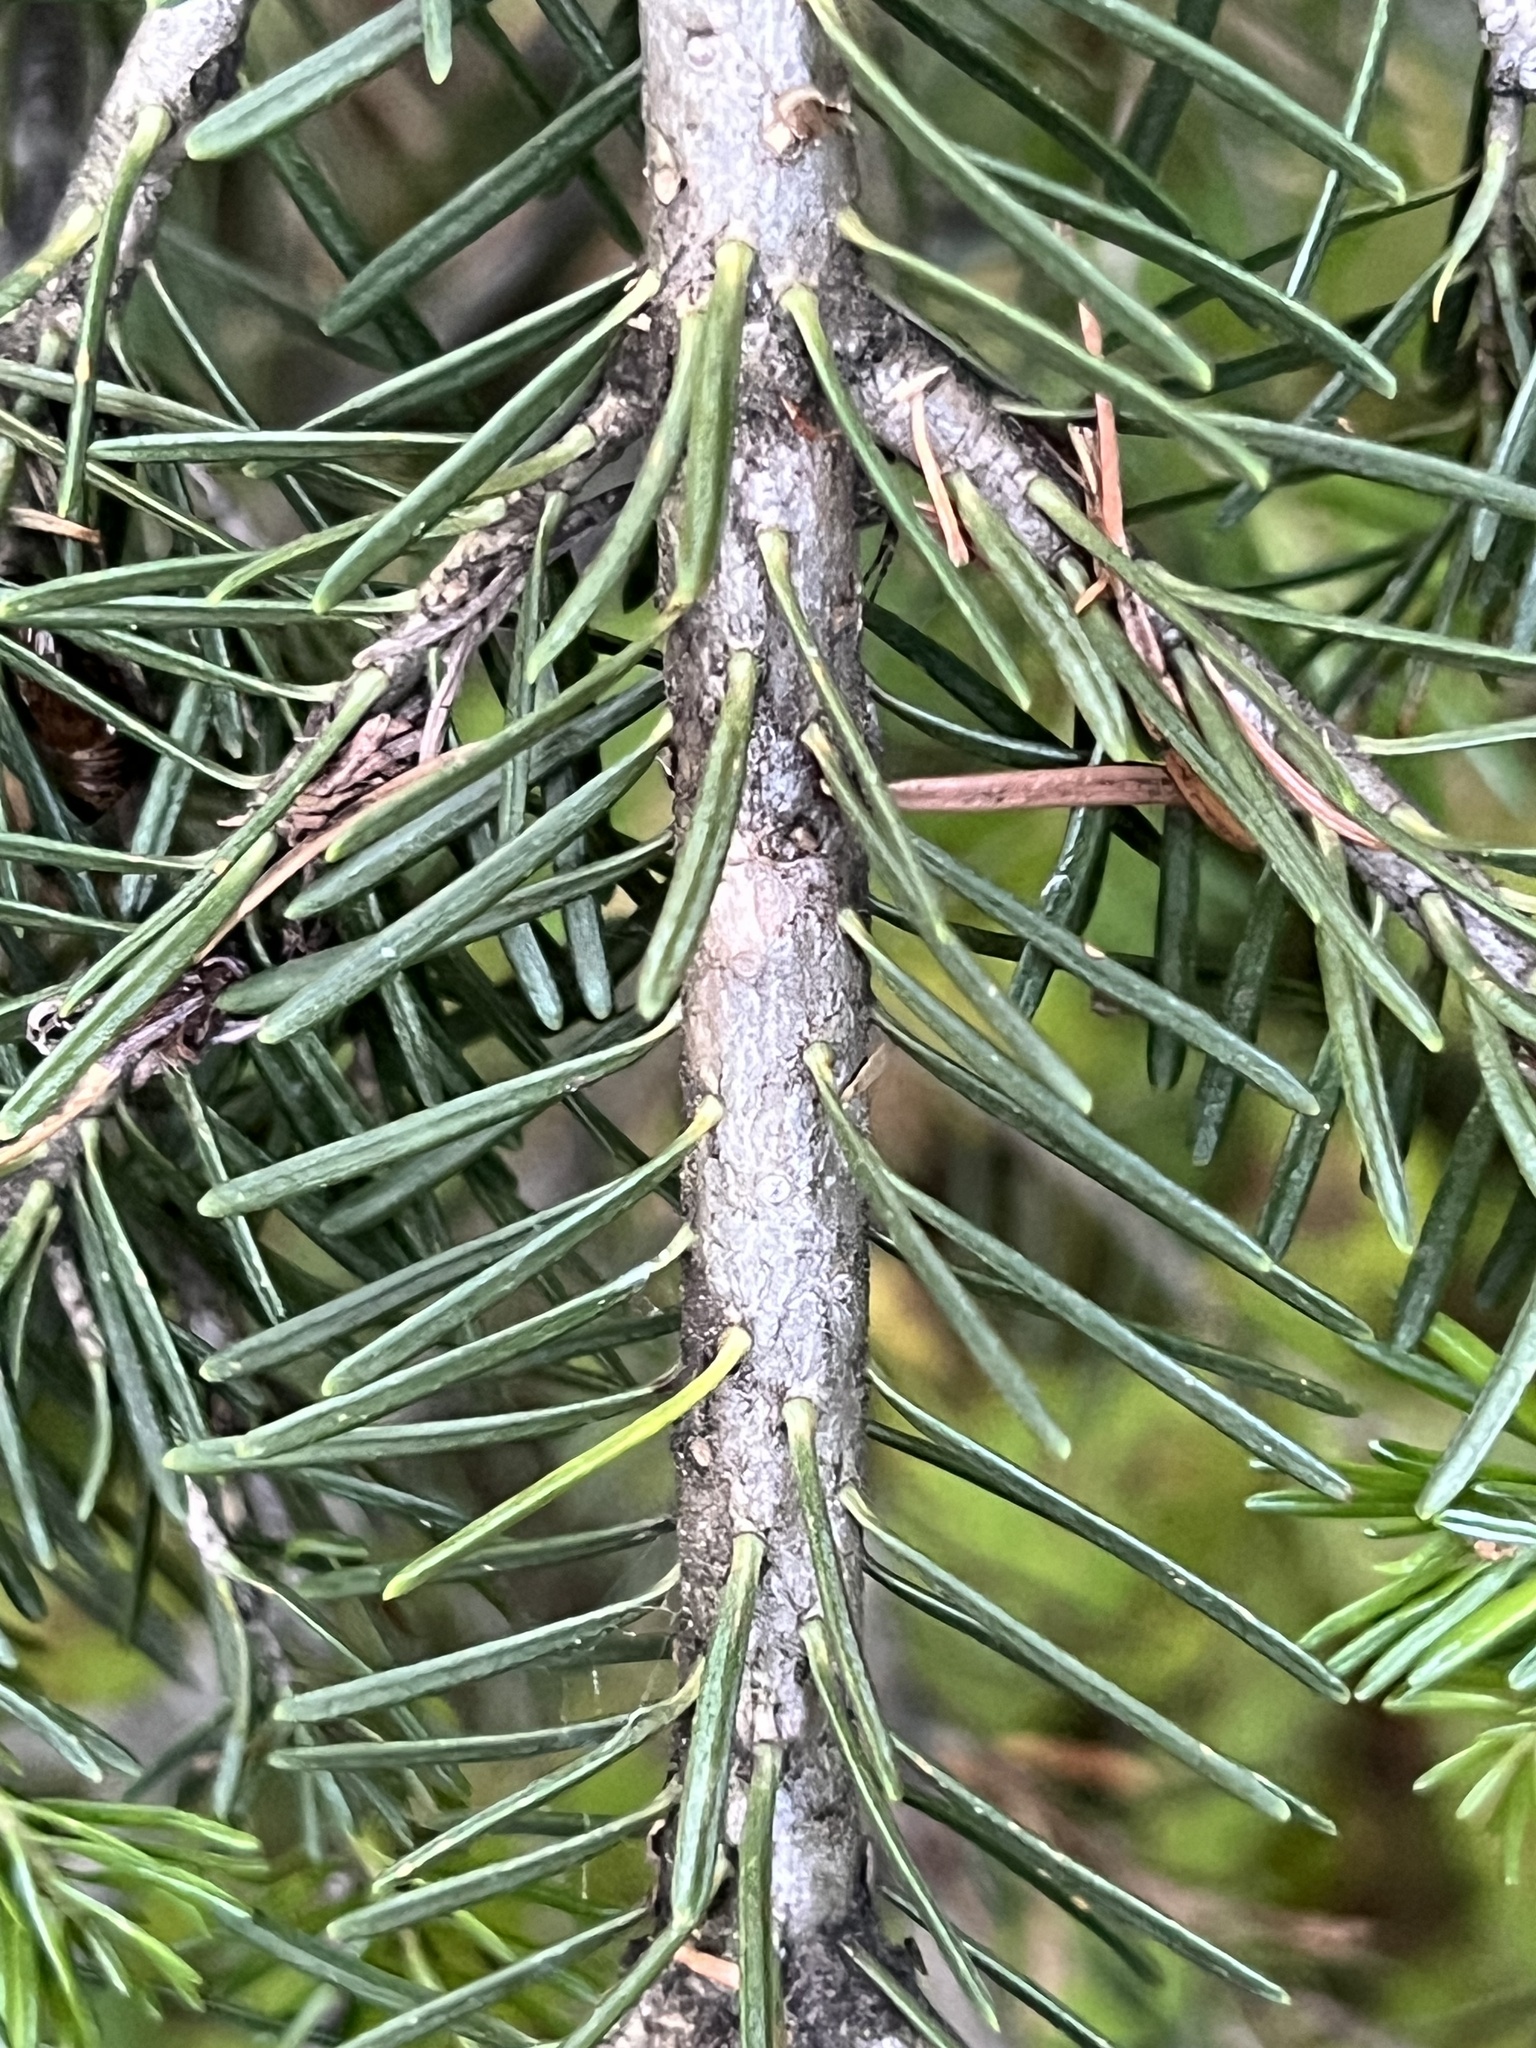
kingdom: Plantae
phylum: Tracheophyta
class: Pinopsida
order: Pinales
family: Pinaceae
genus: Abies
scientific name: Abies lasiocarpa
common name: Subalpine fir
